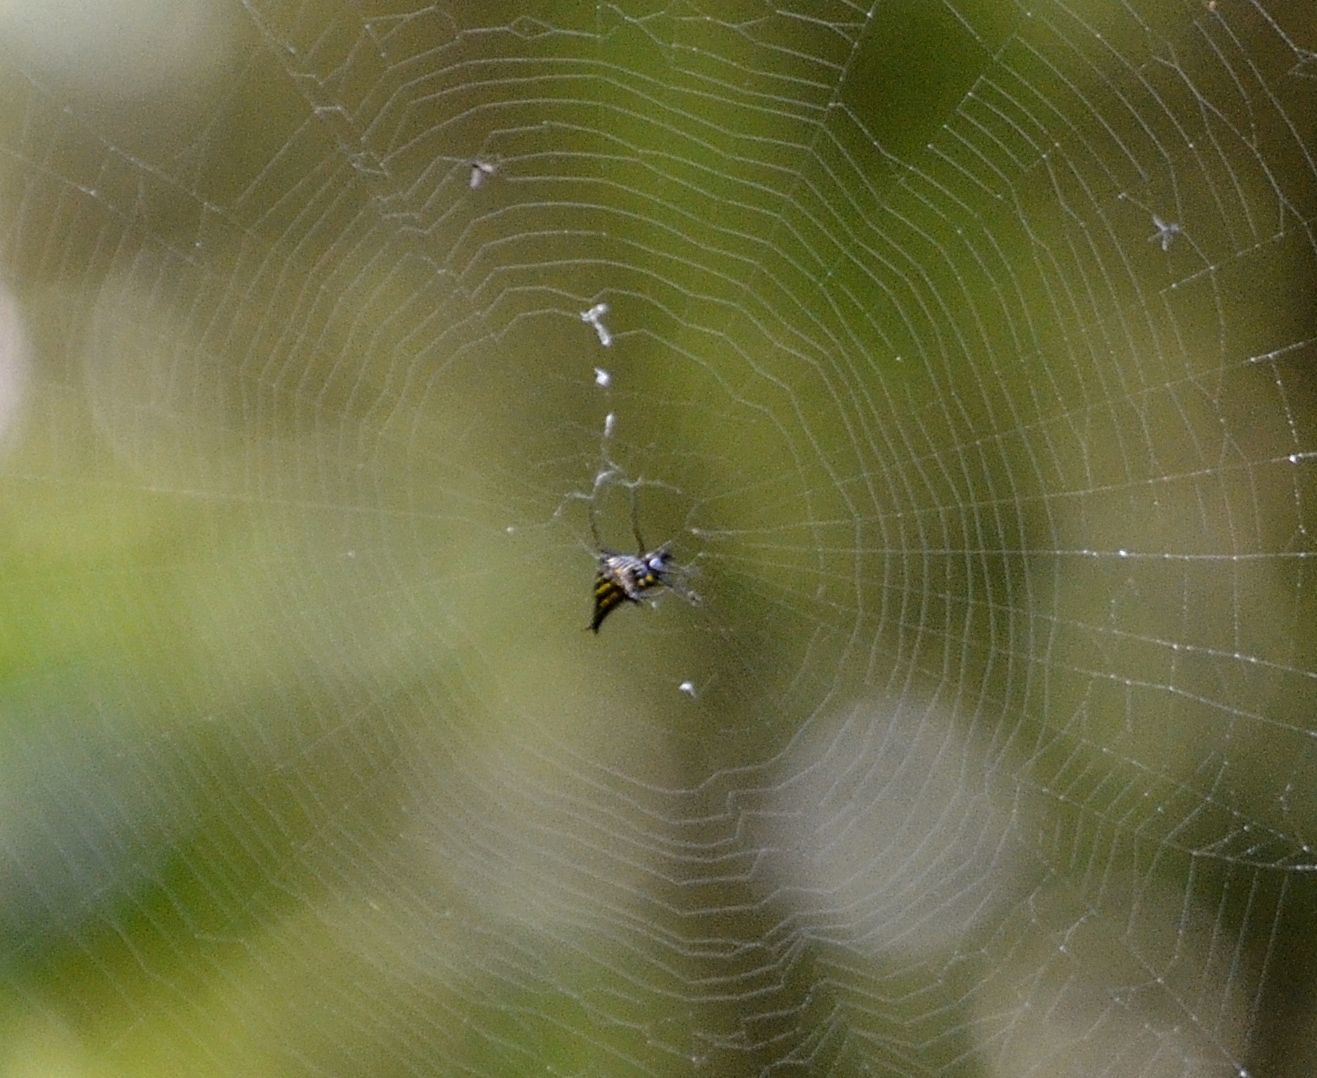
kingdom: Animalia
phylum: Arthropoda
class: Arachnida
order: Araneae
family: Araneidae
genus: Micrathena
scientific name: Micrathena
